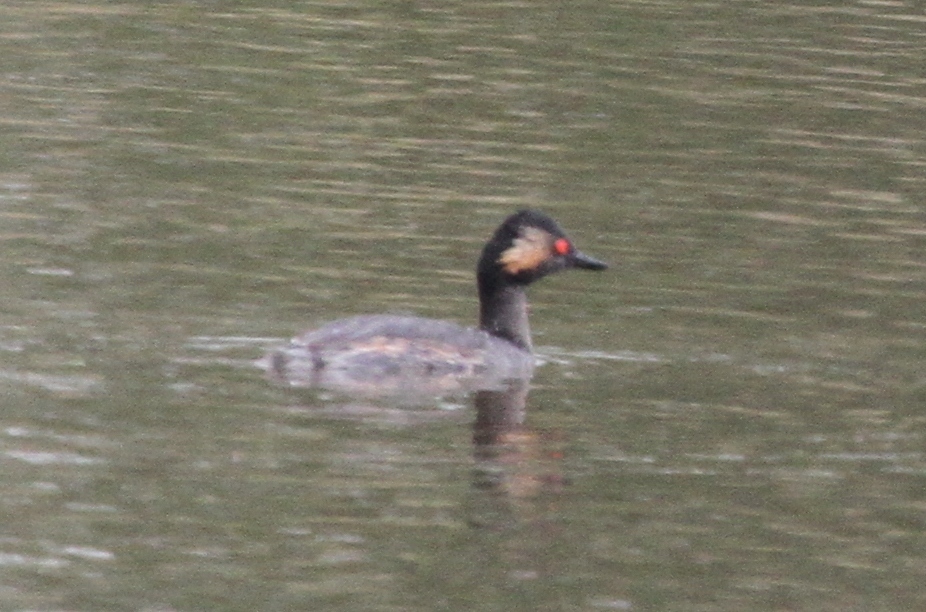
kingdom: Animalia
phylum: Chordata
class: Aves
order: Podicipediformes
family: Podicipedidae
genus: Podiceps
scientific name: Podiceps nigricollis
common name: Black-necked grebe
